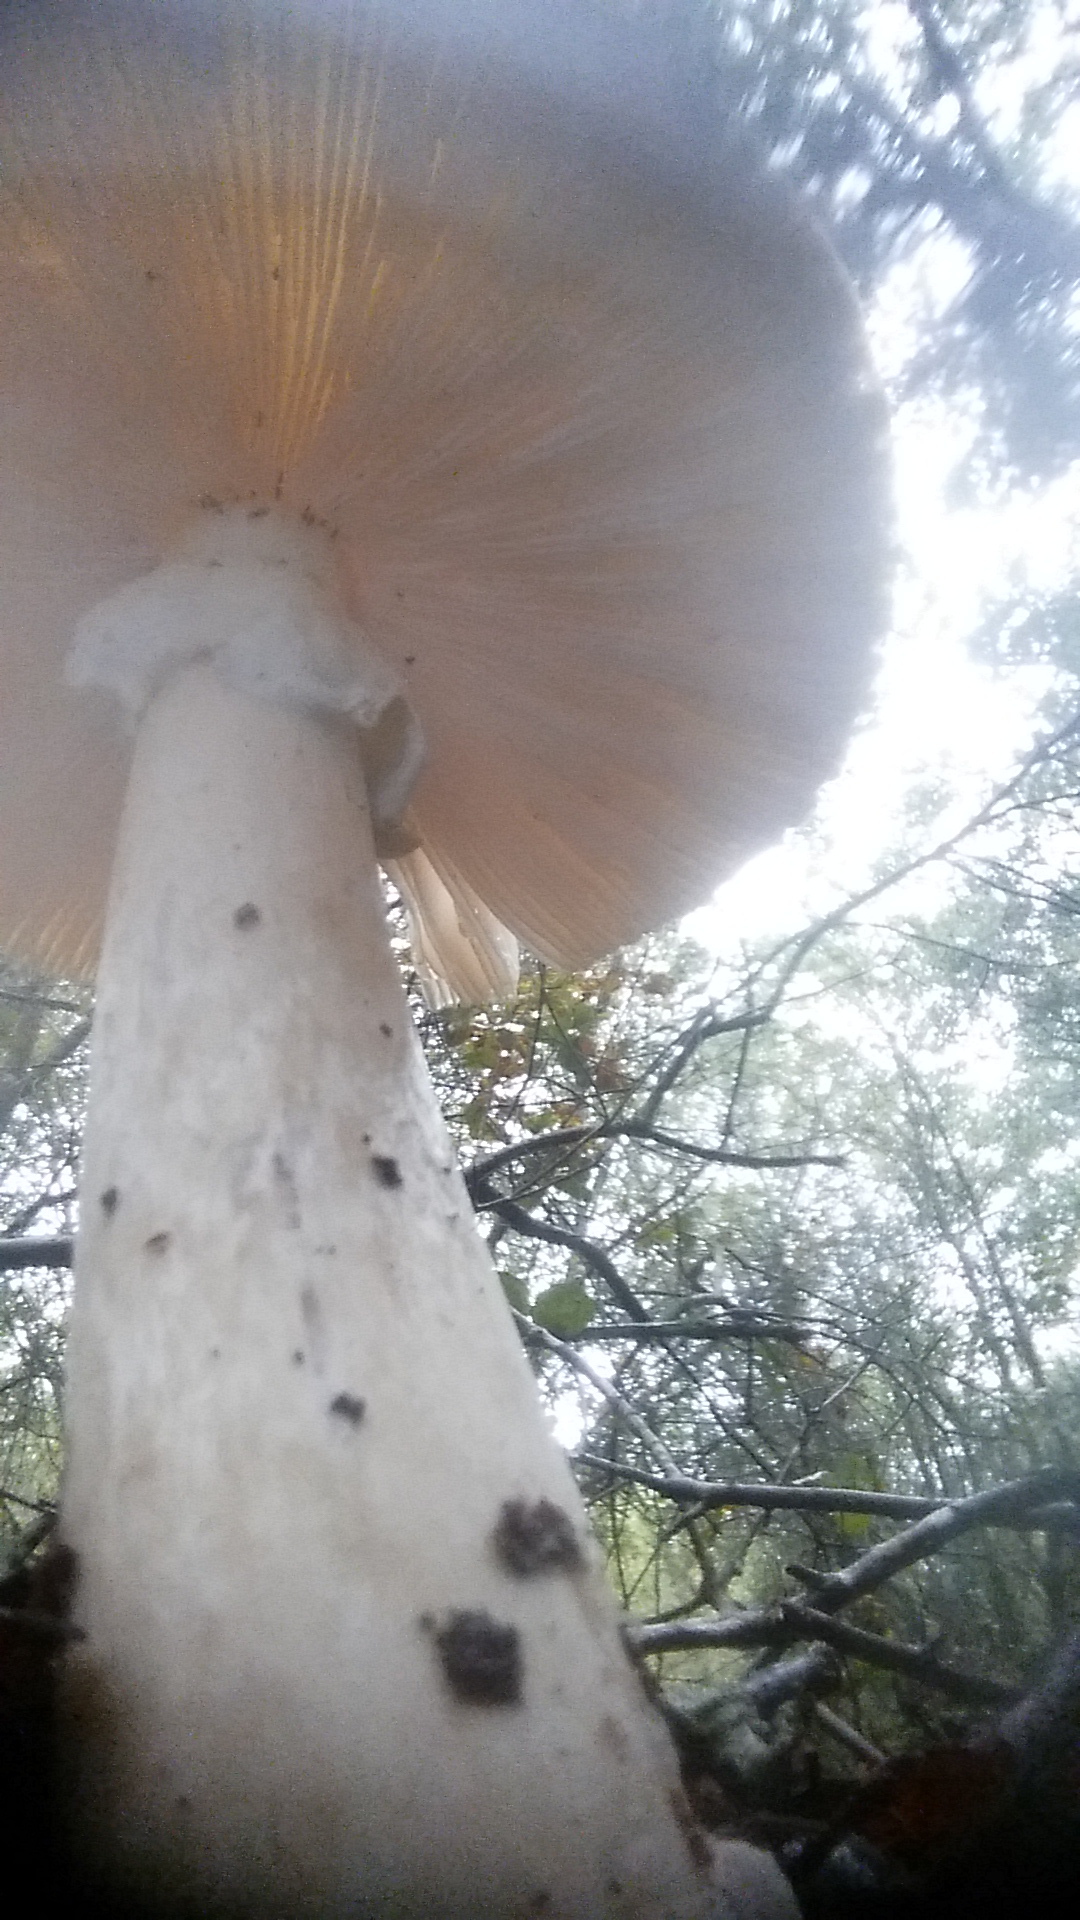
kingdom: Fungi
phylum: Basidiomycota
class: Agaricomycetes
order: Agaricales
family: Amanitaceae
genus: Amanita
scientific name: Amanita phalloides
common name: Death cap
